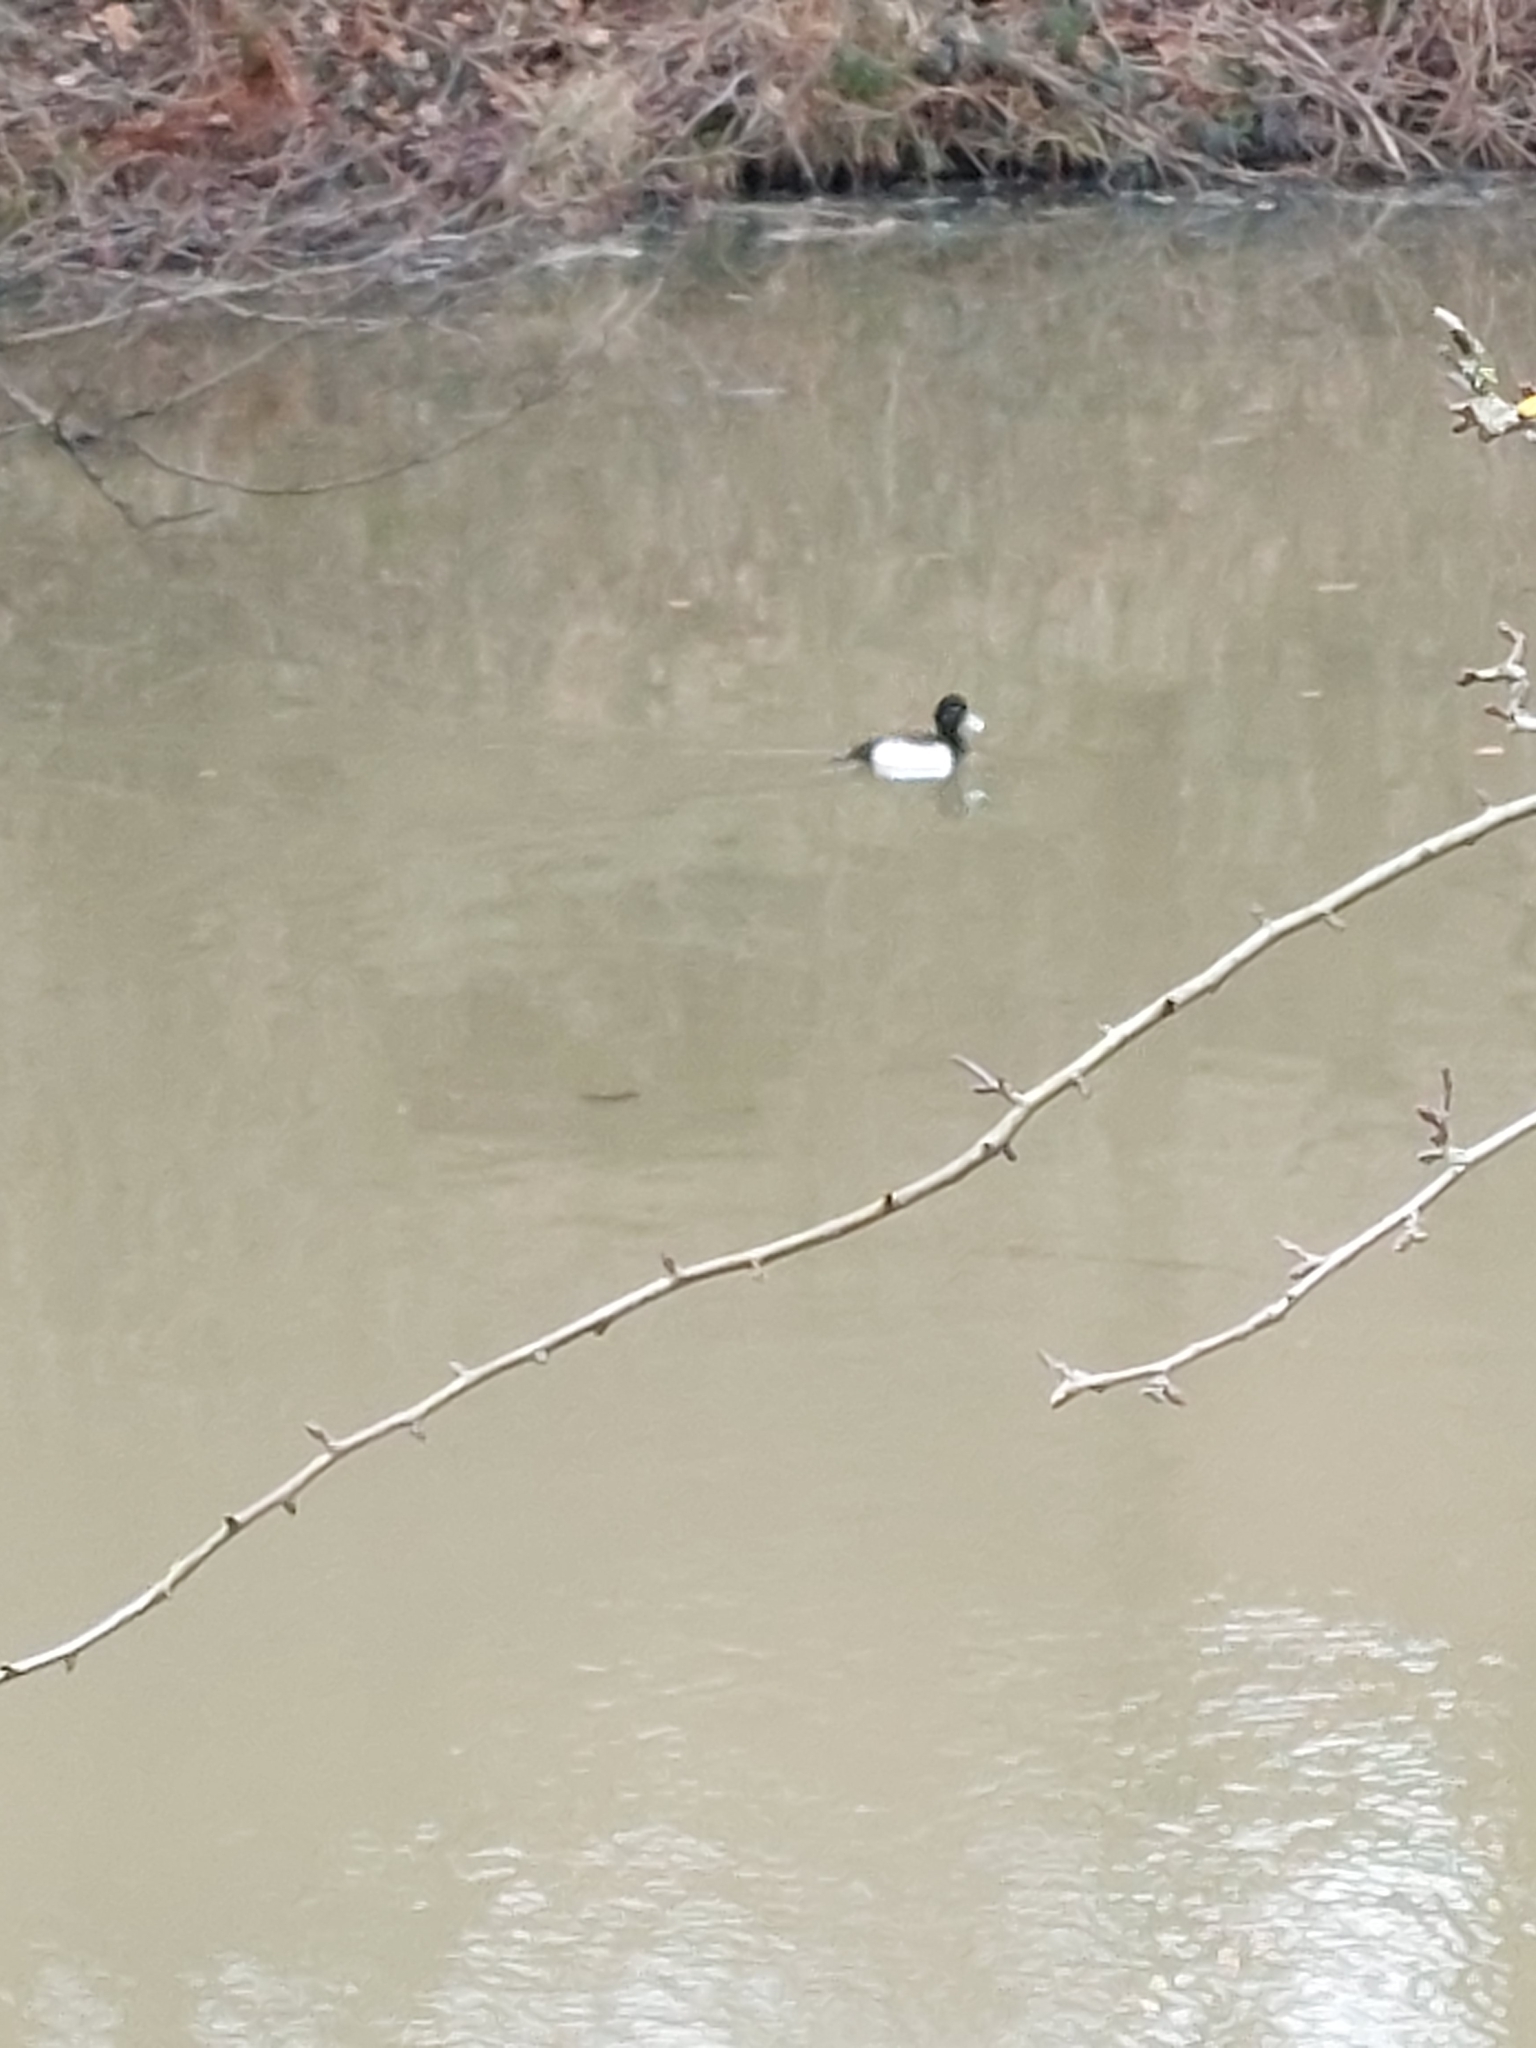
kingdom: Animalia
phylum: Chordata
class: Aves
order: Anseriformes
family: Anatidae
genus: Aythya
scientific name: Aythya fuligula
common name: Tufted duck
